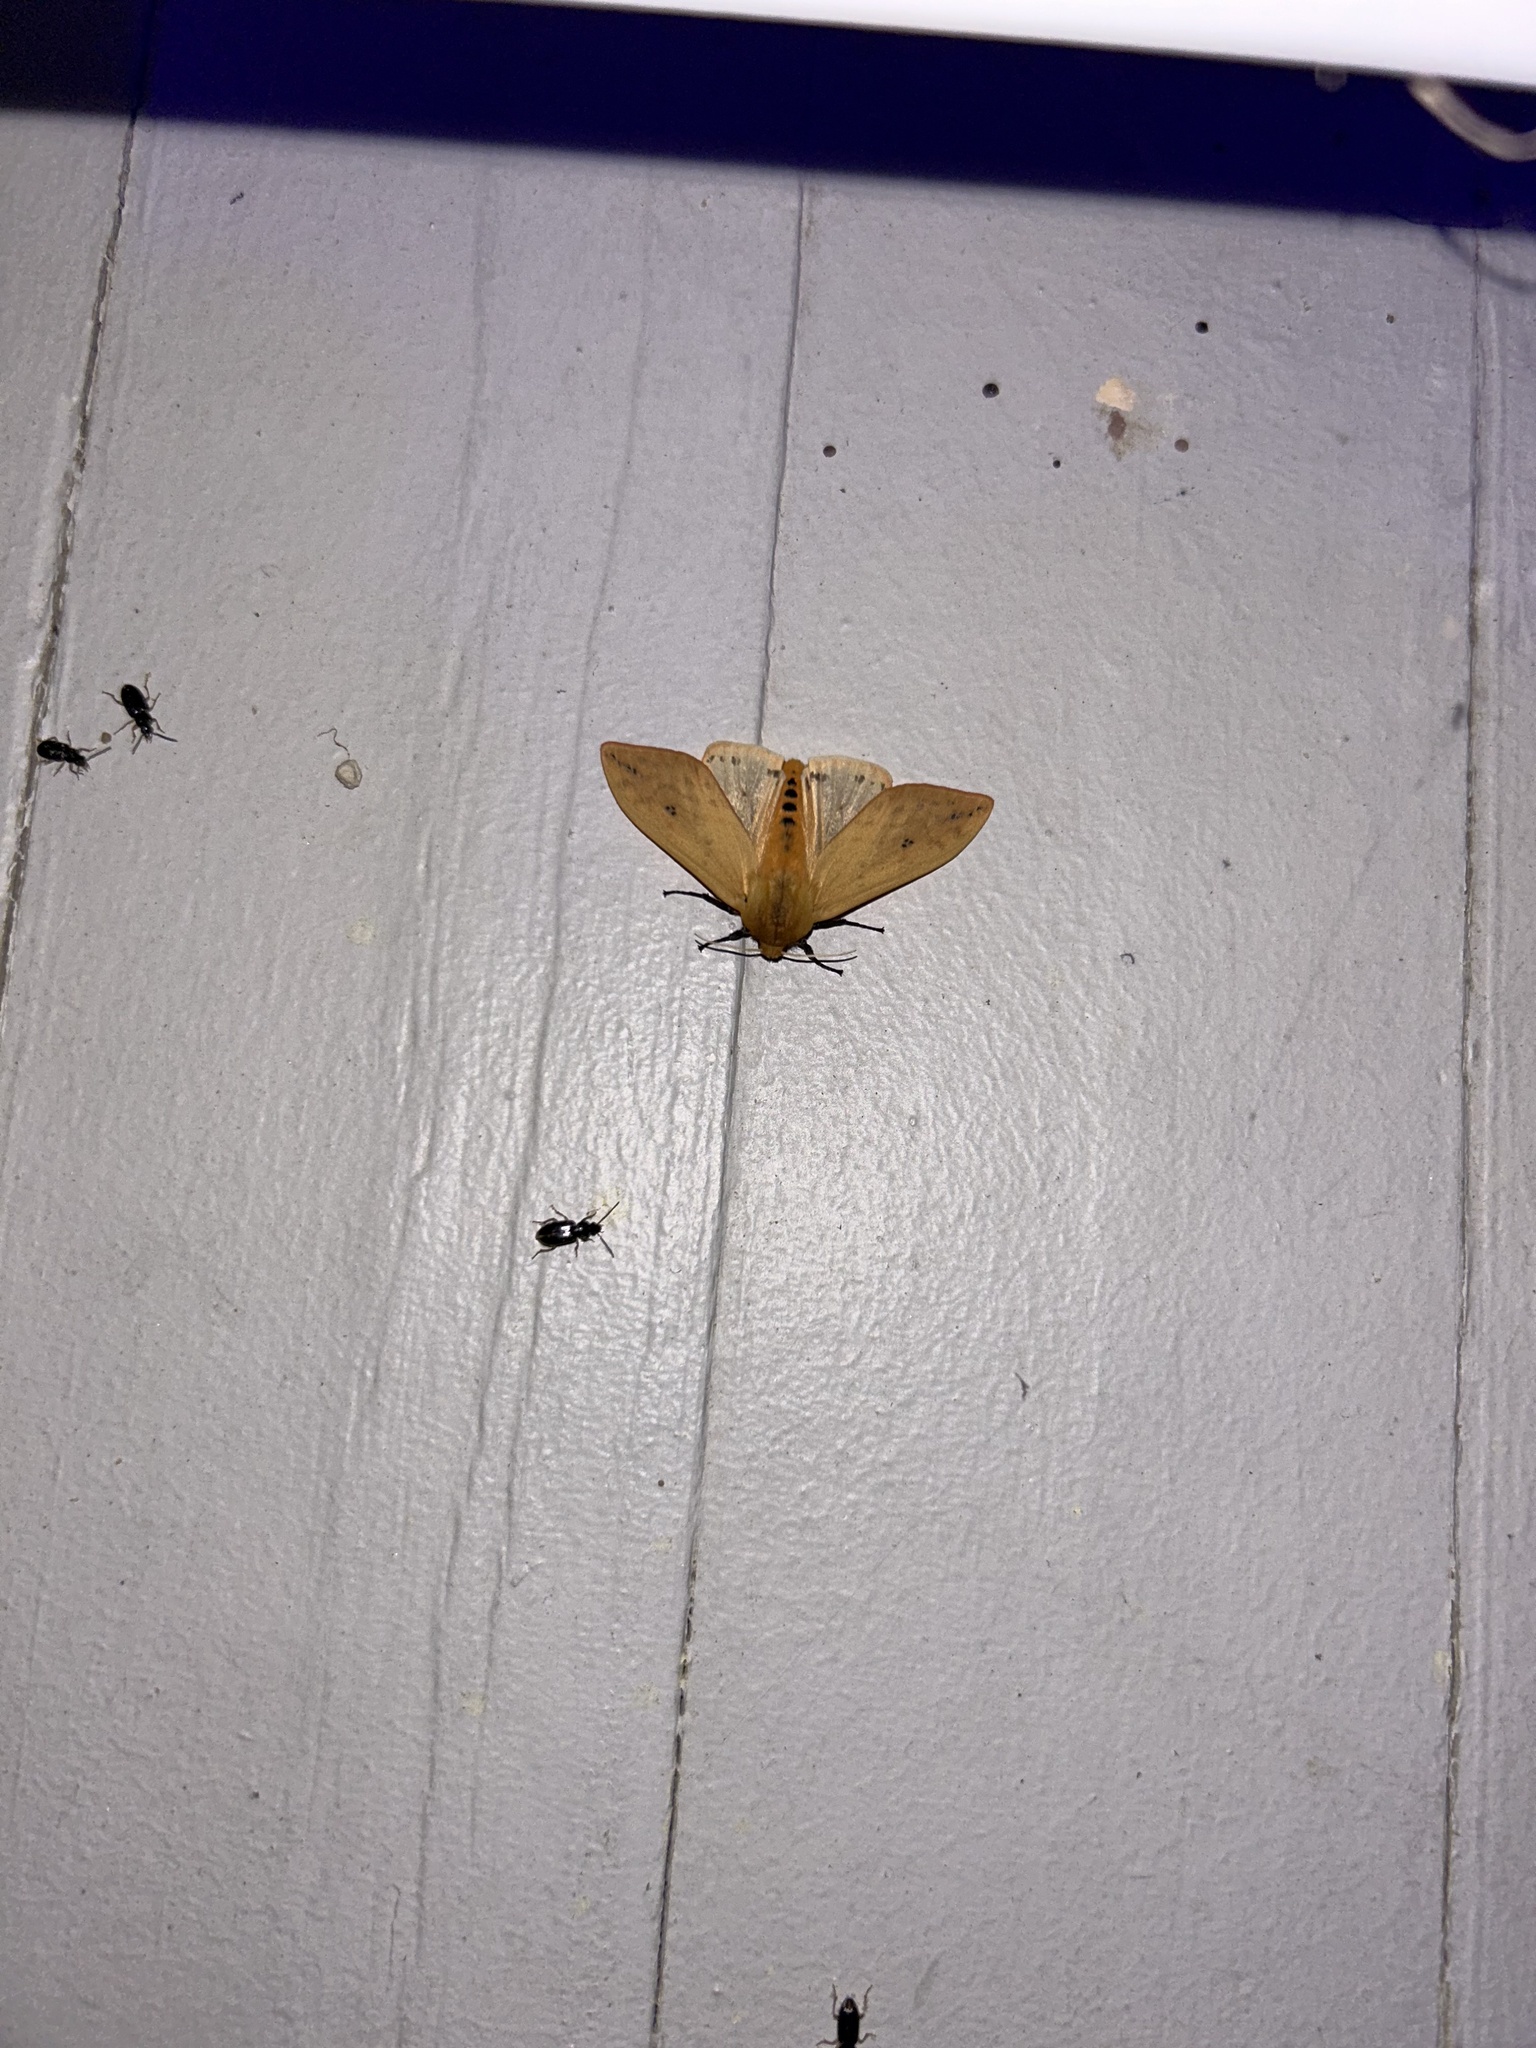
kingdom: Animalia
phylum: Arthropoda
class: Insecta
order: Lepidoptera
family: Erebidae
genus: Pyrrharctia
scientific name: Pyrrharctia isabella
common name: Isabella tiger moth
